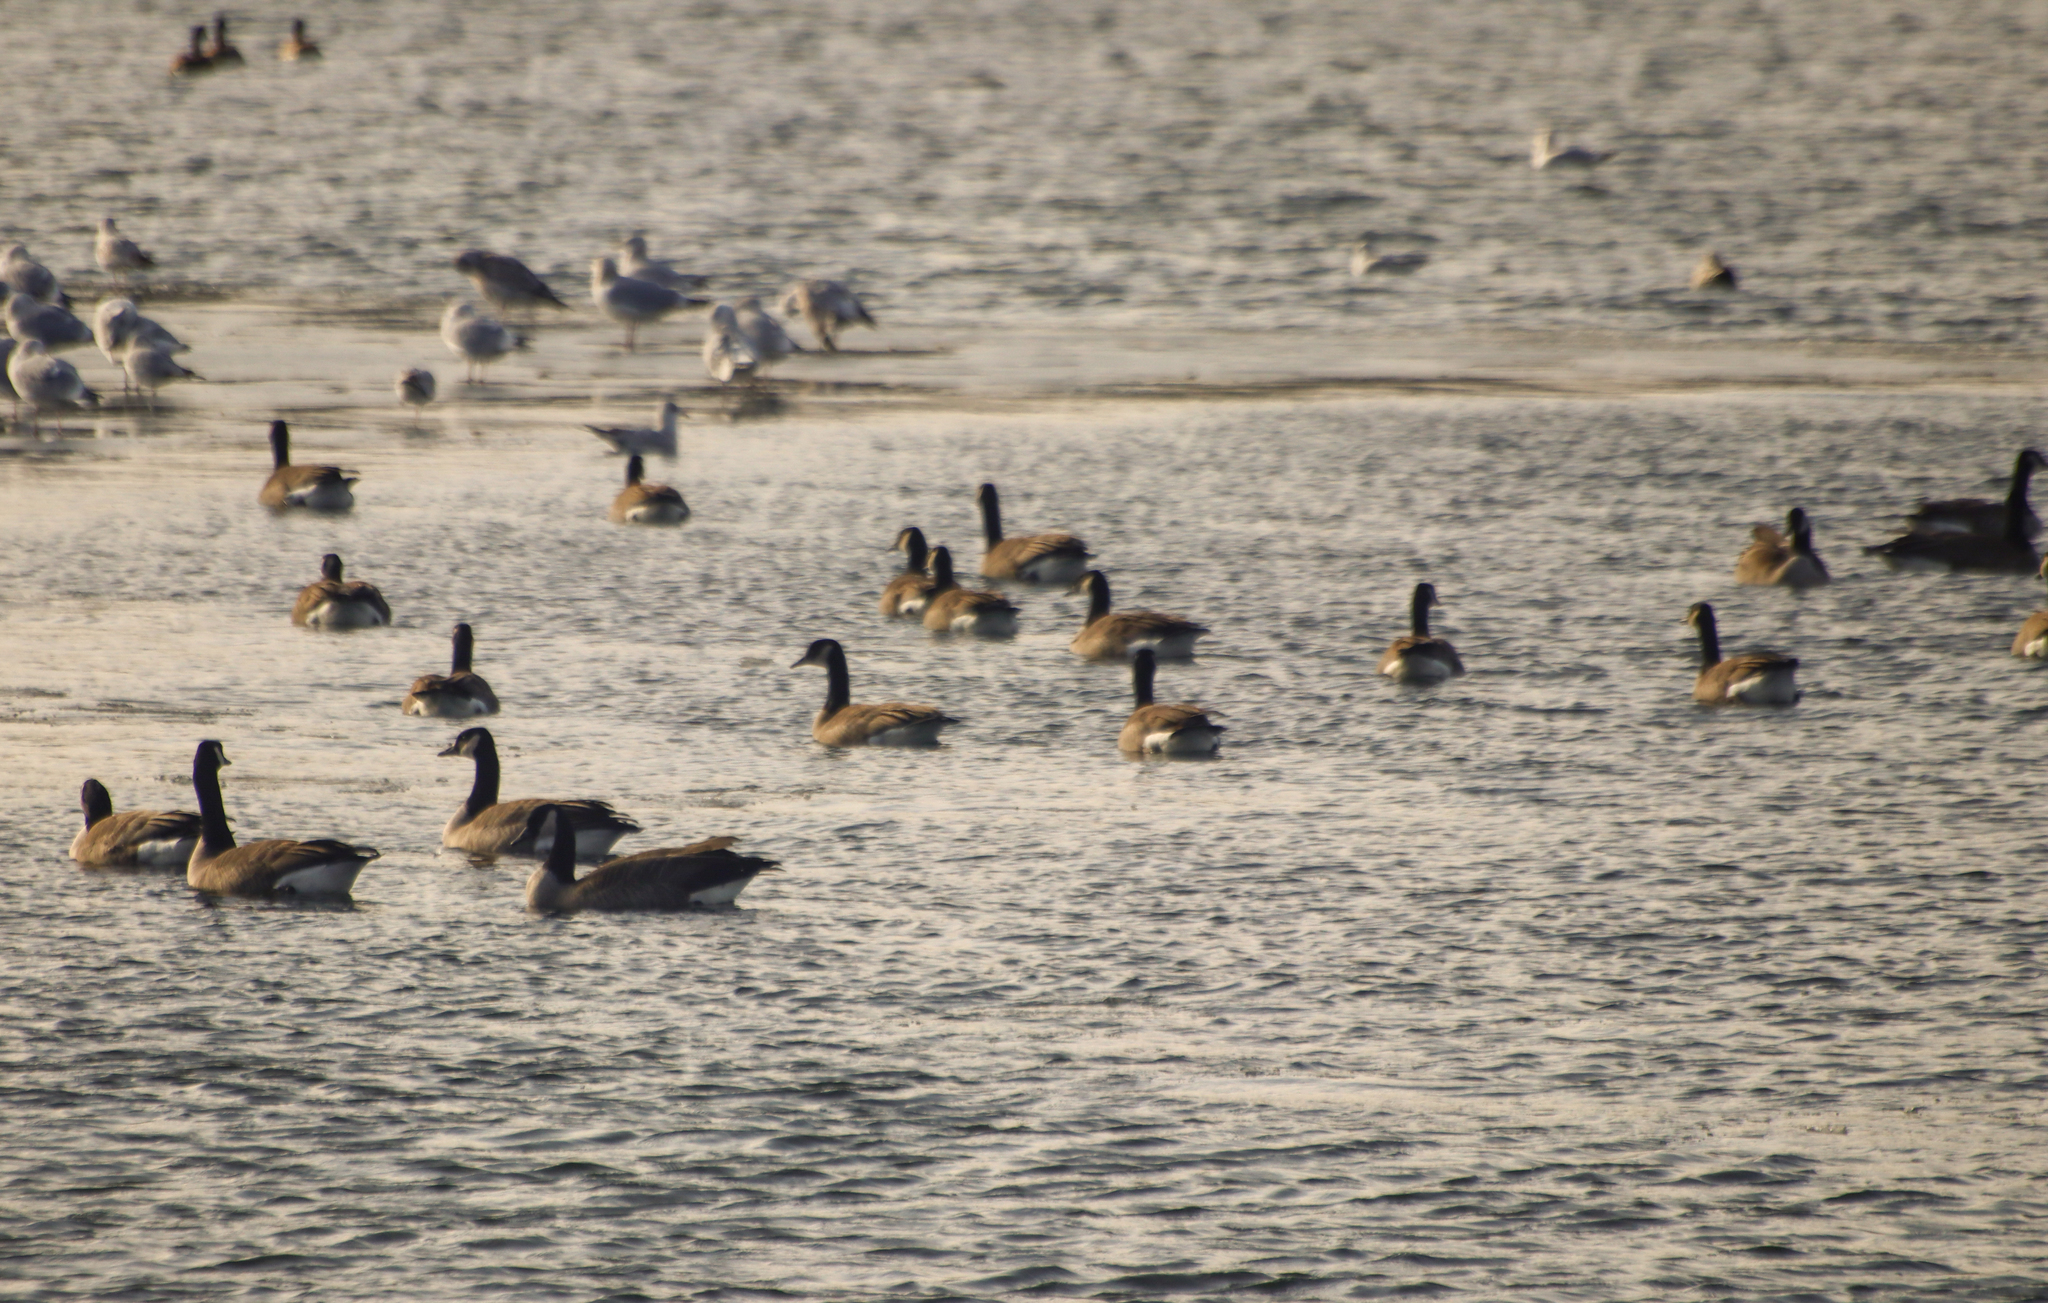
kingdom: Animalia
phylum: Chordata
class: Aves
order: Anseriformes
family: Anatidae
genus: Branta
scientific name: Branta canadensis
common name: Canada goose
